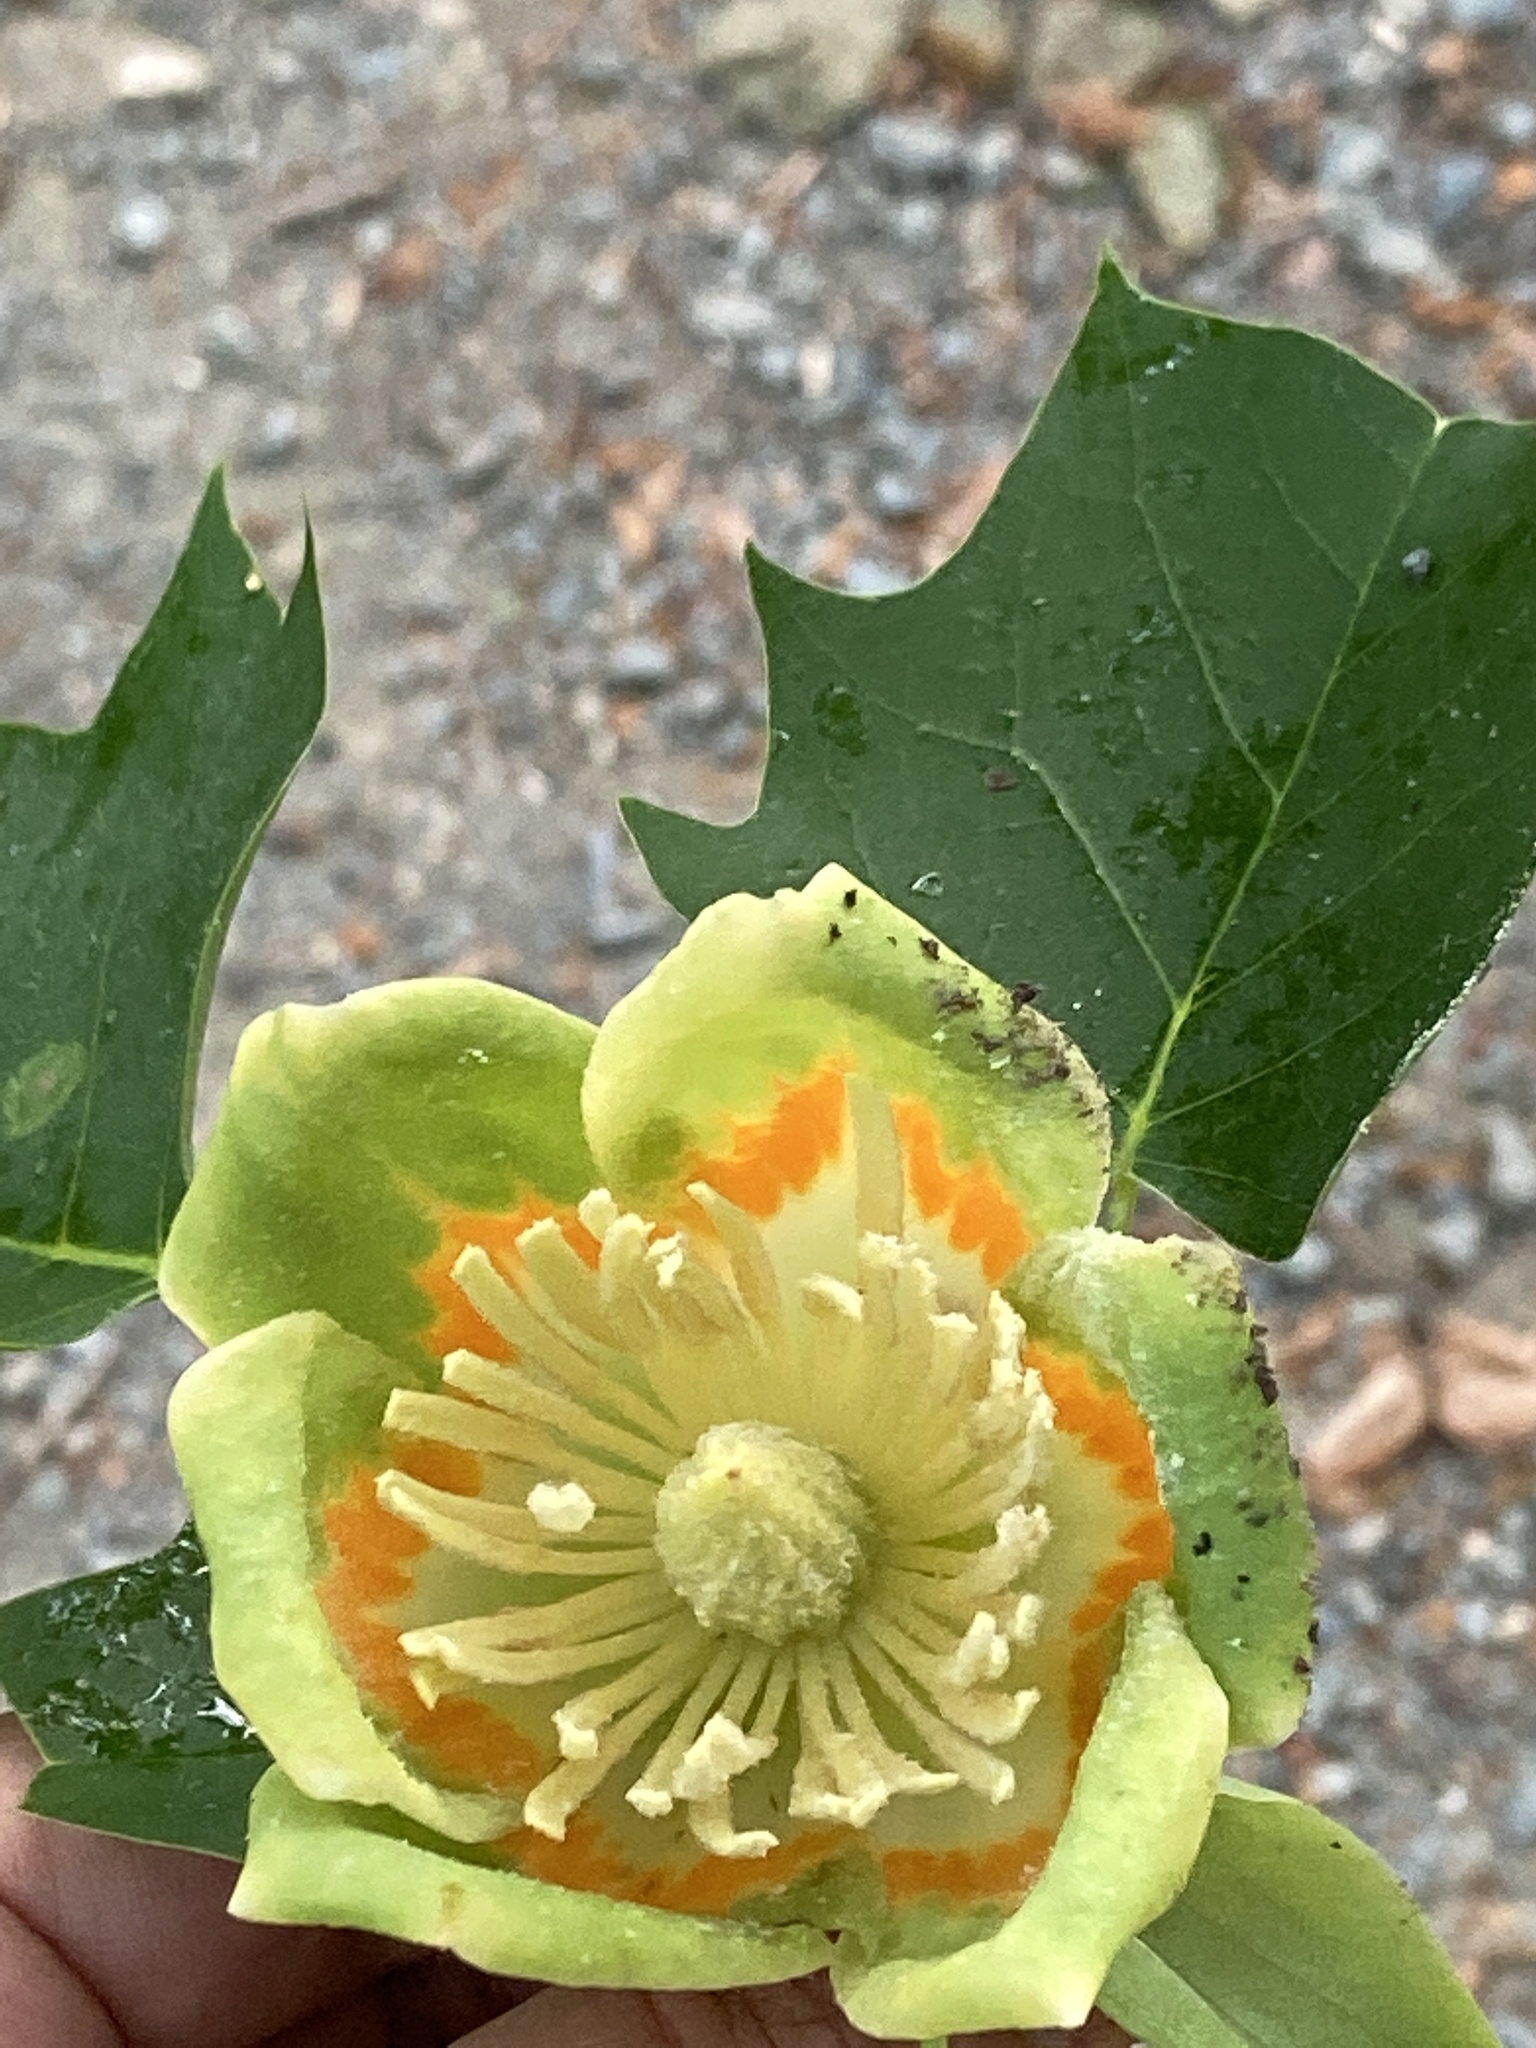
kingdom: Plantae
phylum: Tracheophyta
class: Magnoliopsida
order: Magnoliales
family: Magnoliaceae
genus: Liriodendron
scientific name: Liriodendron tulipifera
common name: Tulip tree
